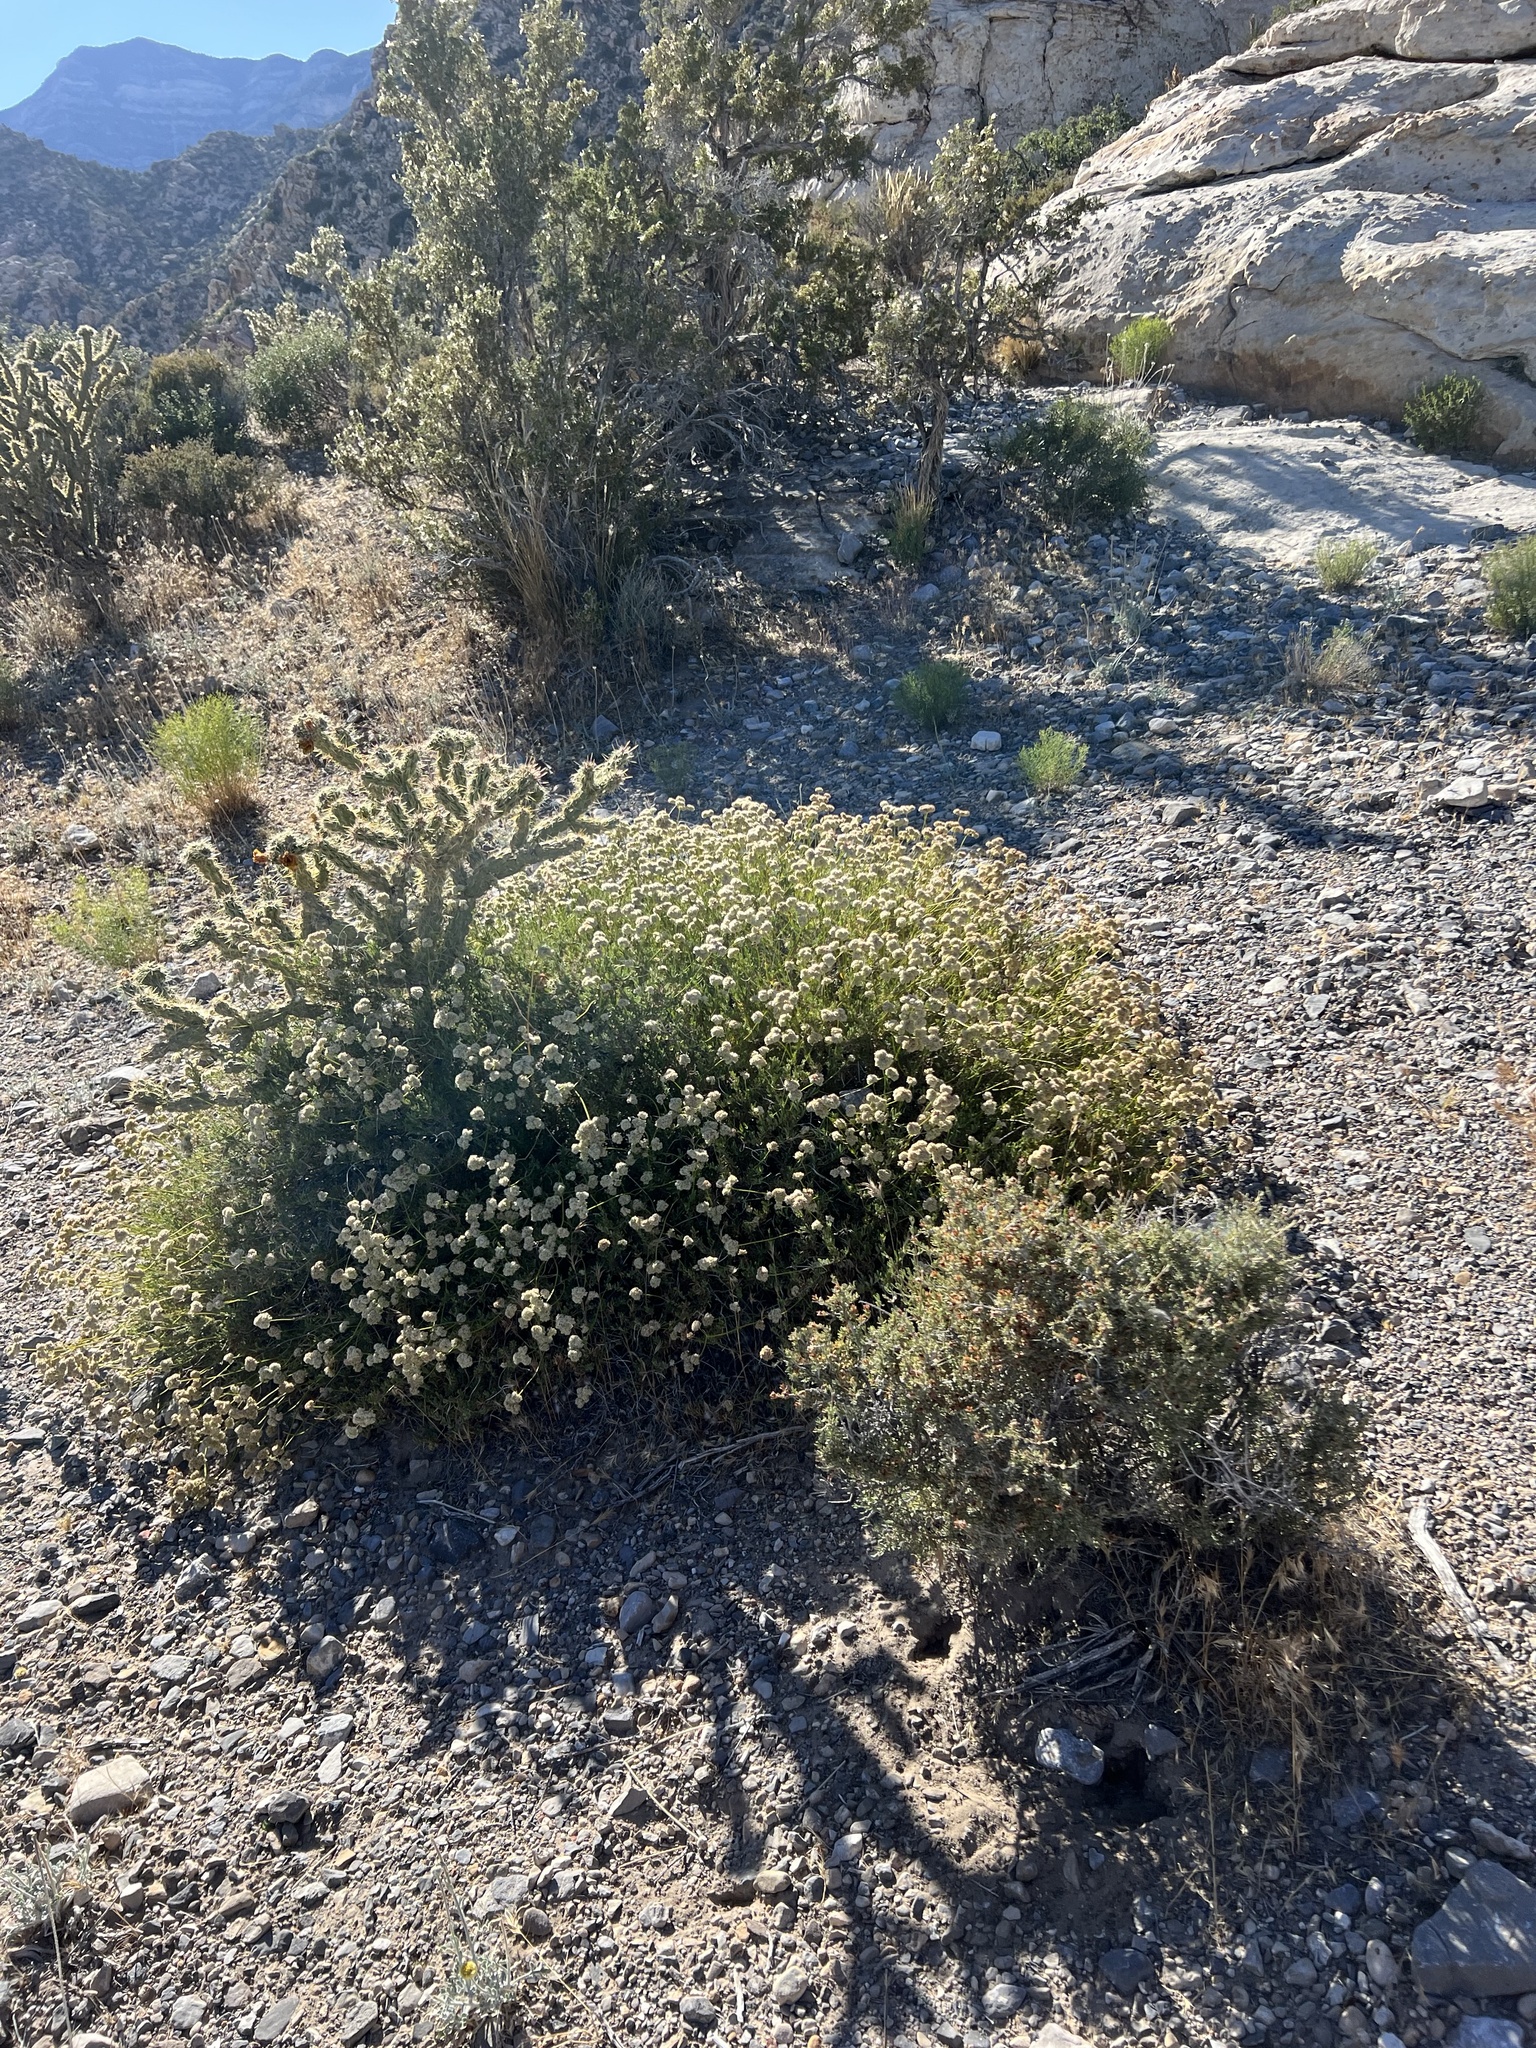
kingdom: Plantae
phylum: Tracheophyta
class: Magnoliopsida
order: Caryophyllales
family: Polygonaceae
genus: Eriogonum
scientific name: Eriogonum fasciculatum
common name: California wild buckwheat
